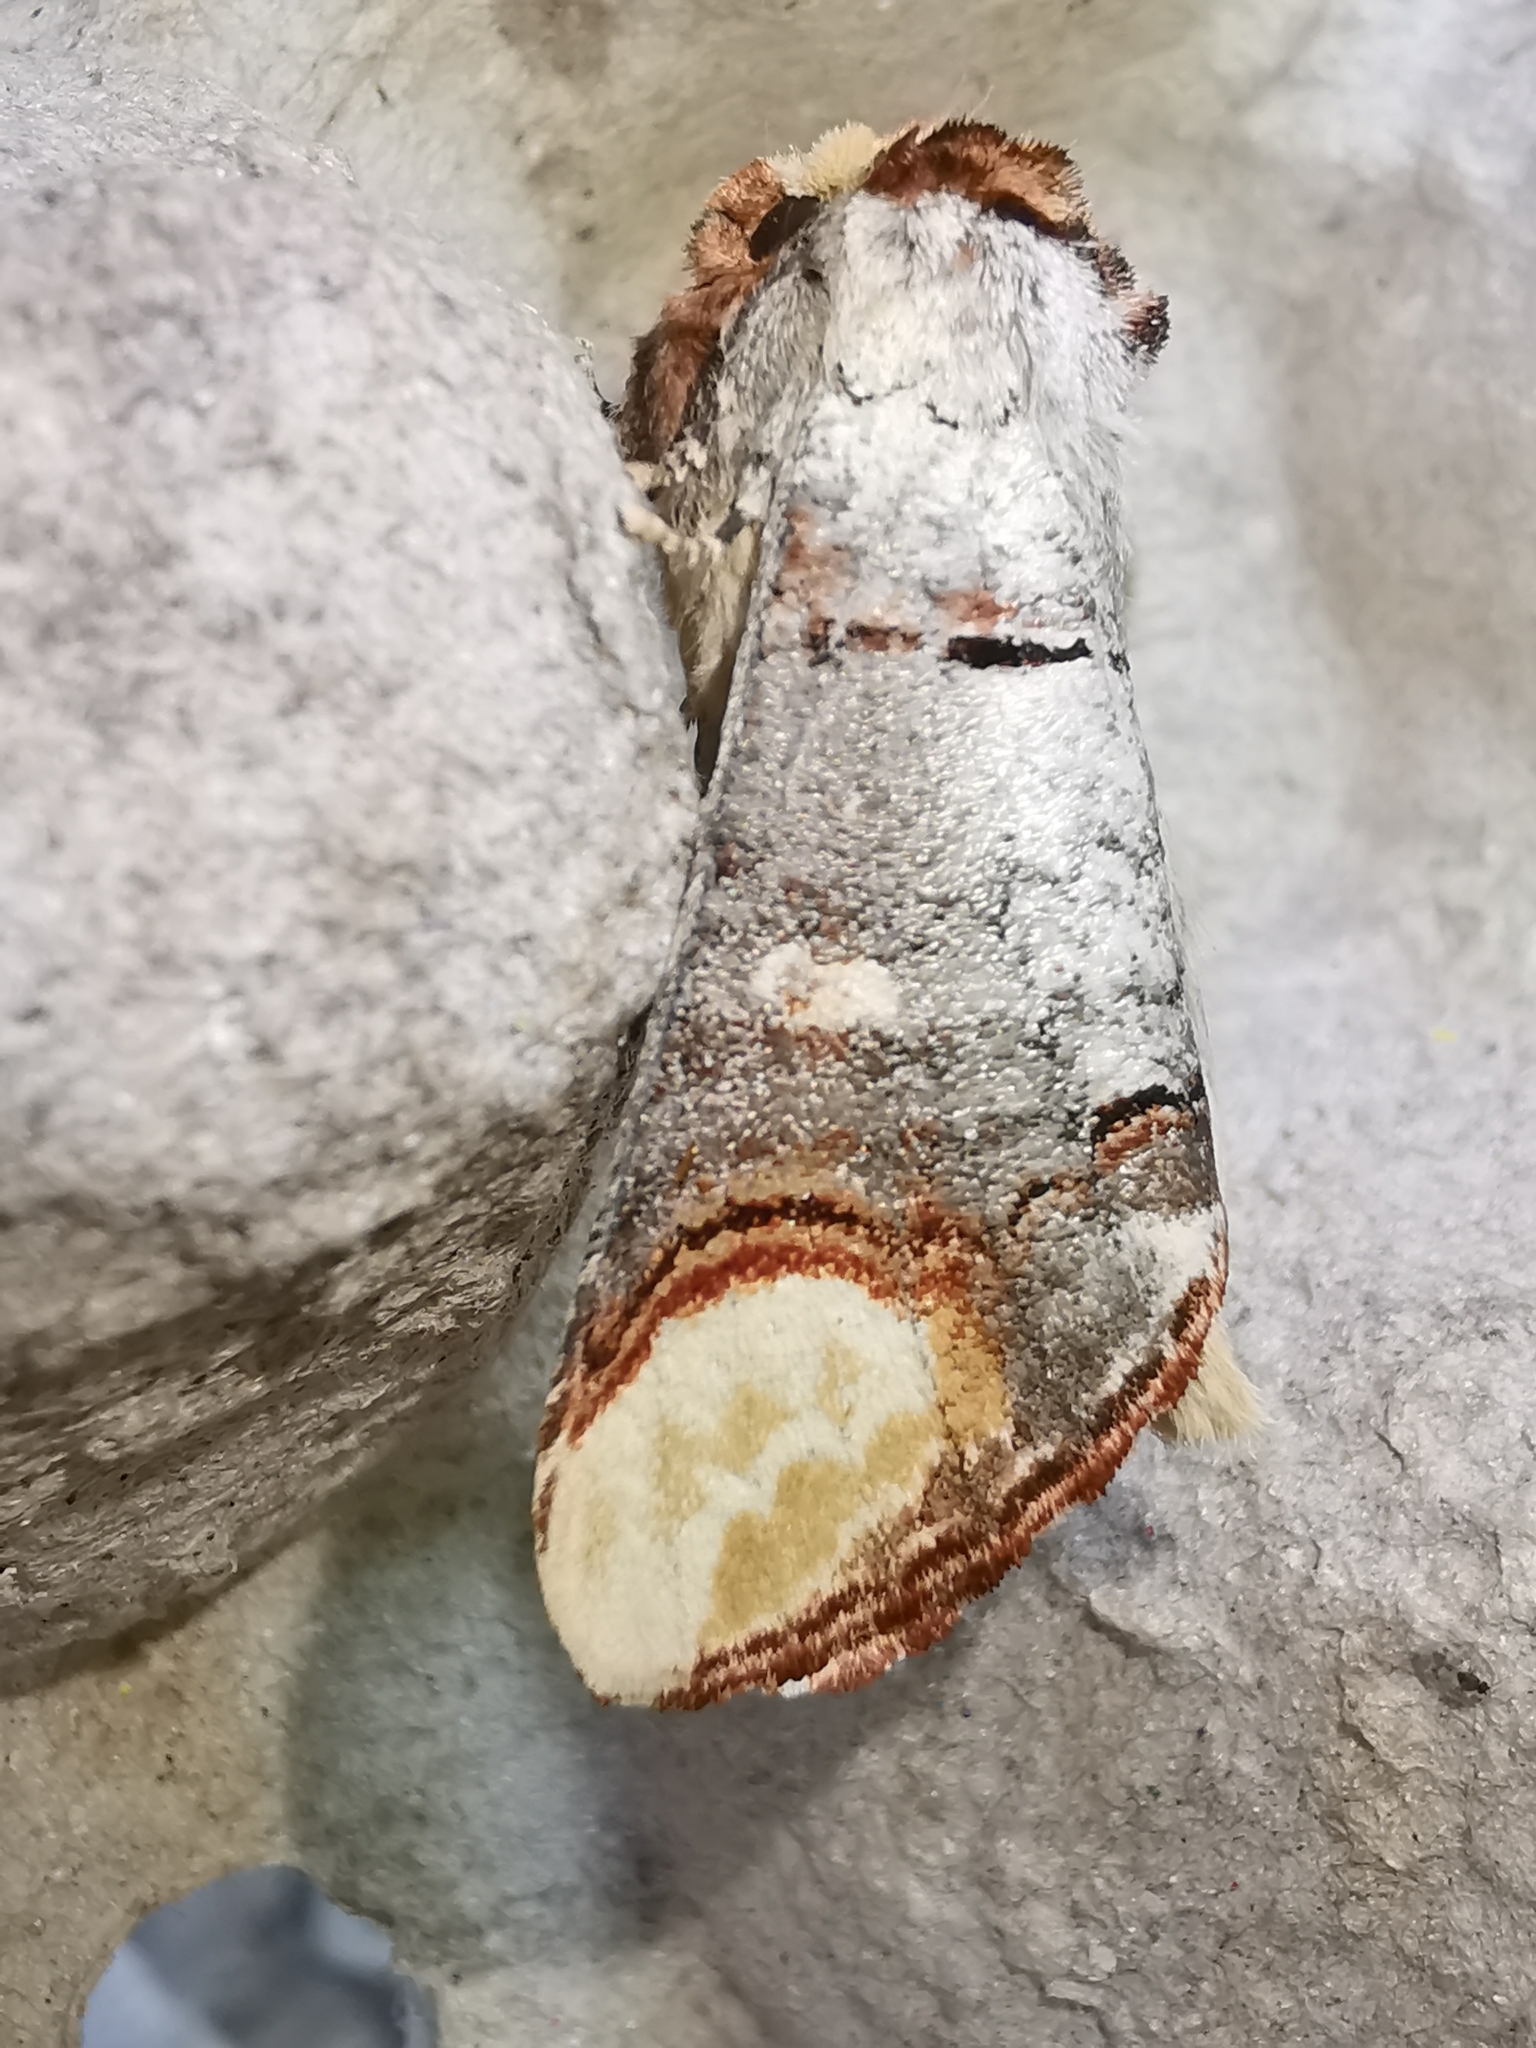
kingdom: Animalia
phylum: Arthropoda
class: Insecta
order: Lepidoptera
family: Notodontidae
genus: Phalera
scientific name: Phalera bucephala
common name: Buff-tip
